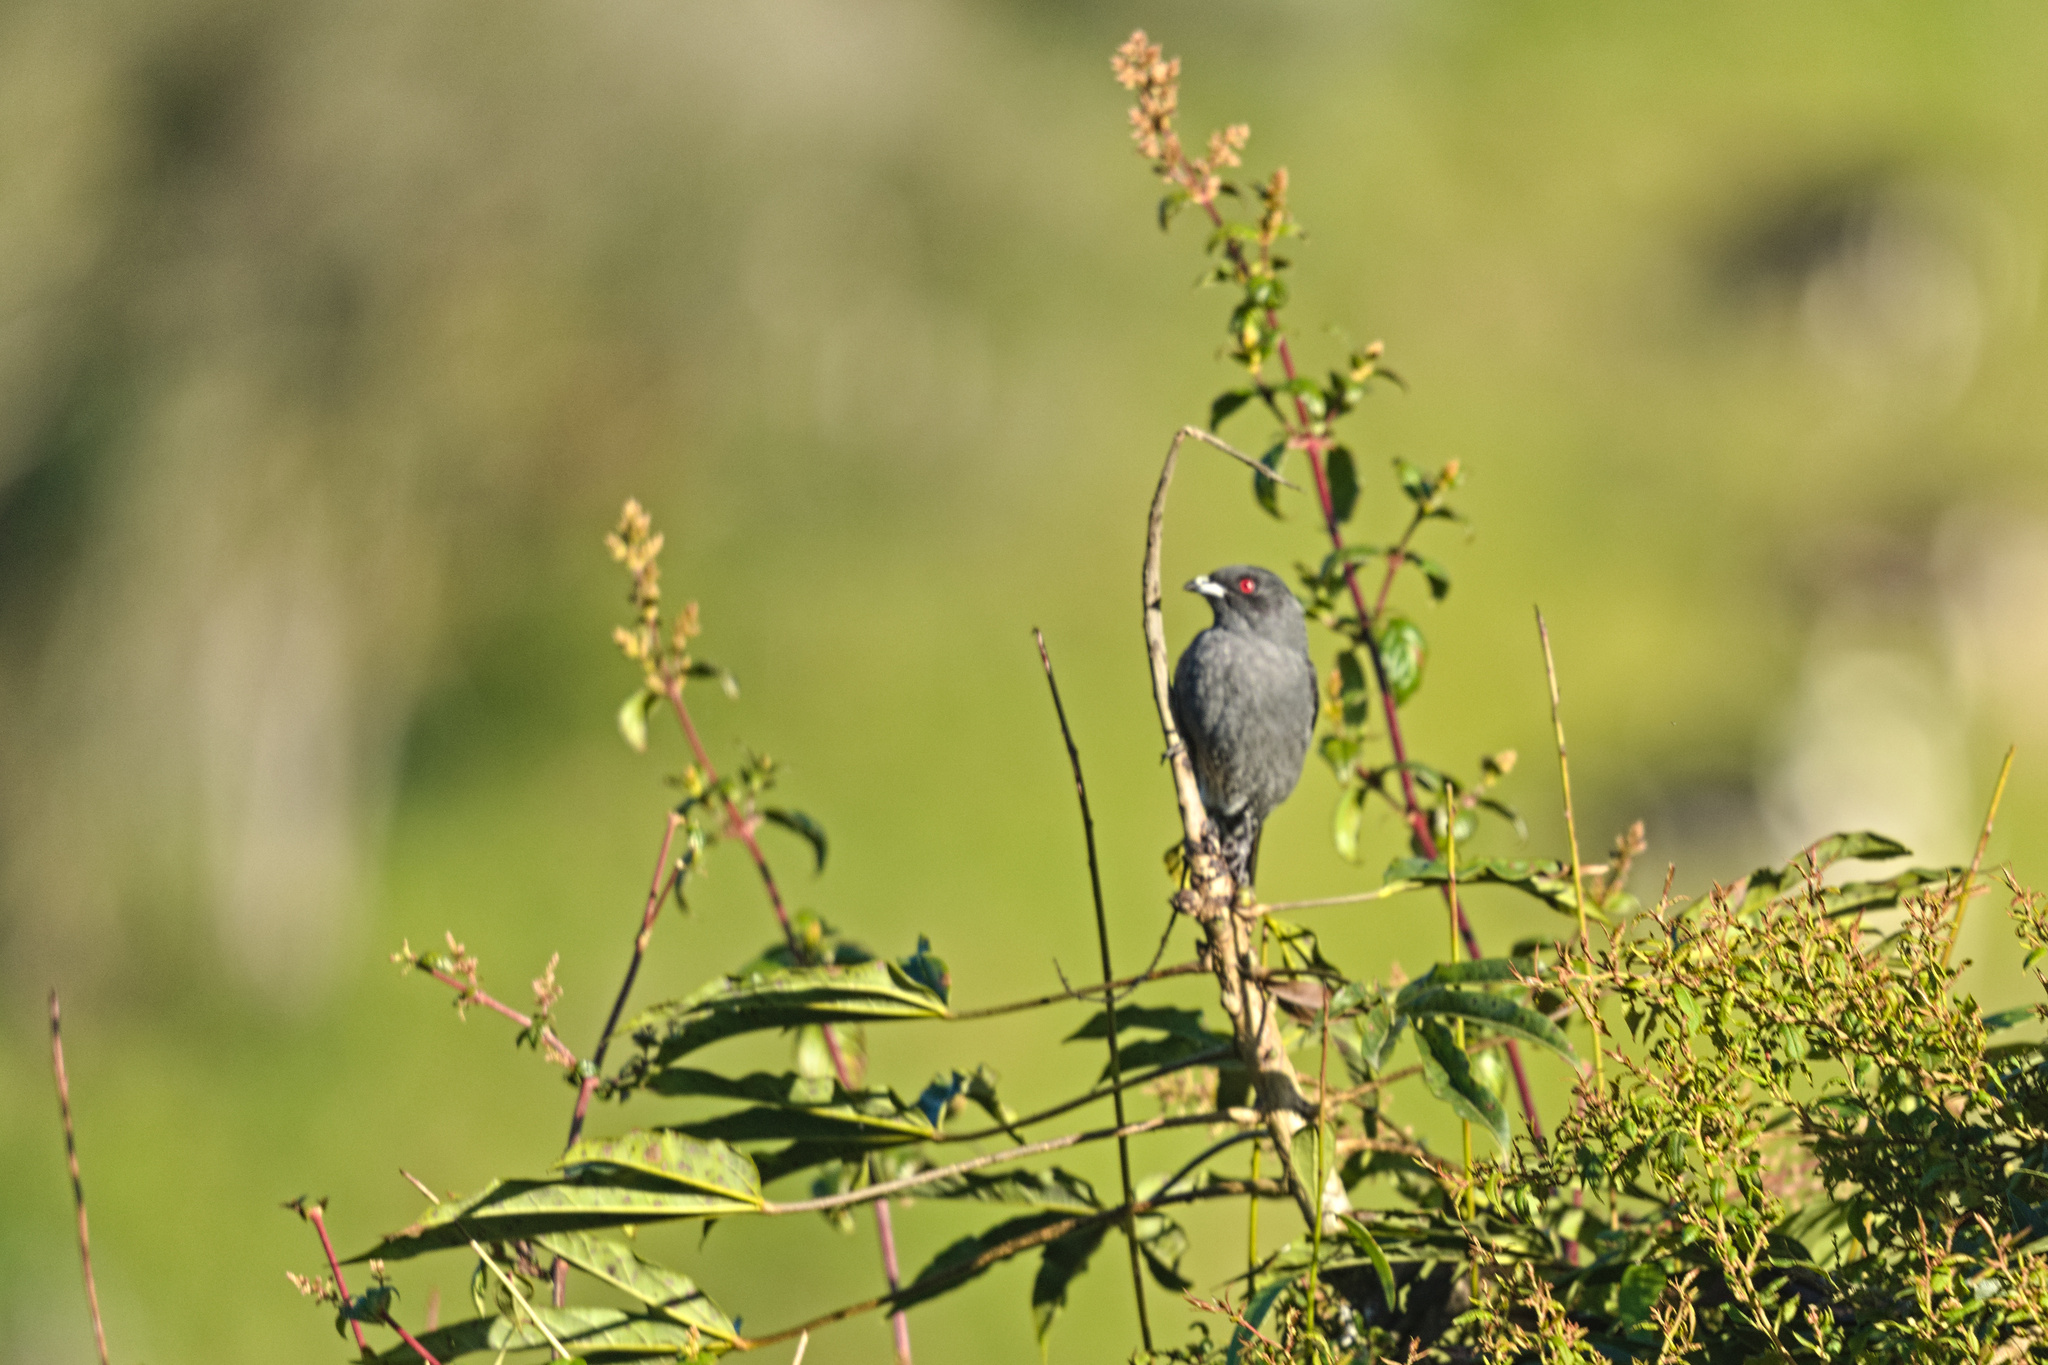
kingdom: Animalia
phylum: Chordata
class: Aves
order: Passeriformes
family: Cotingidae
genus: Ampelion
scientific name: Ampelion rubrocristatus
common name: Red-crested cotinga
